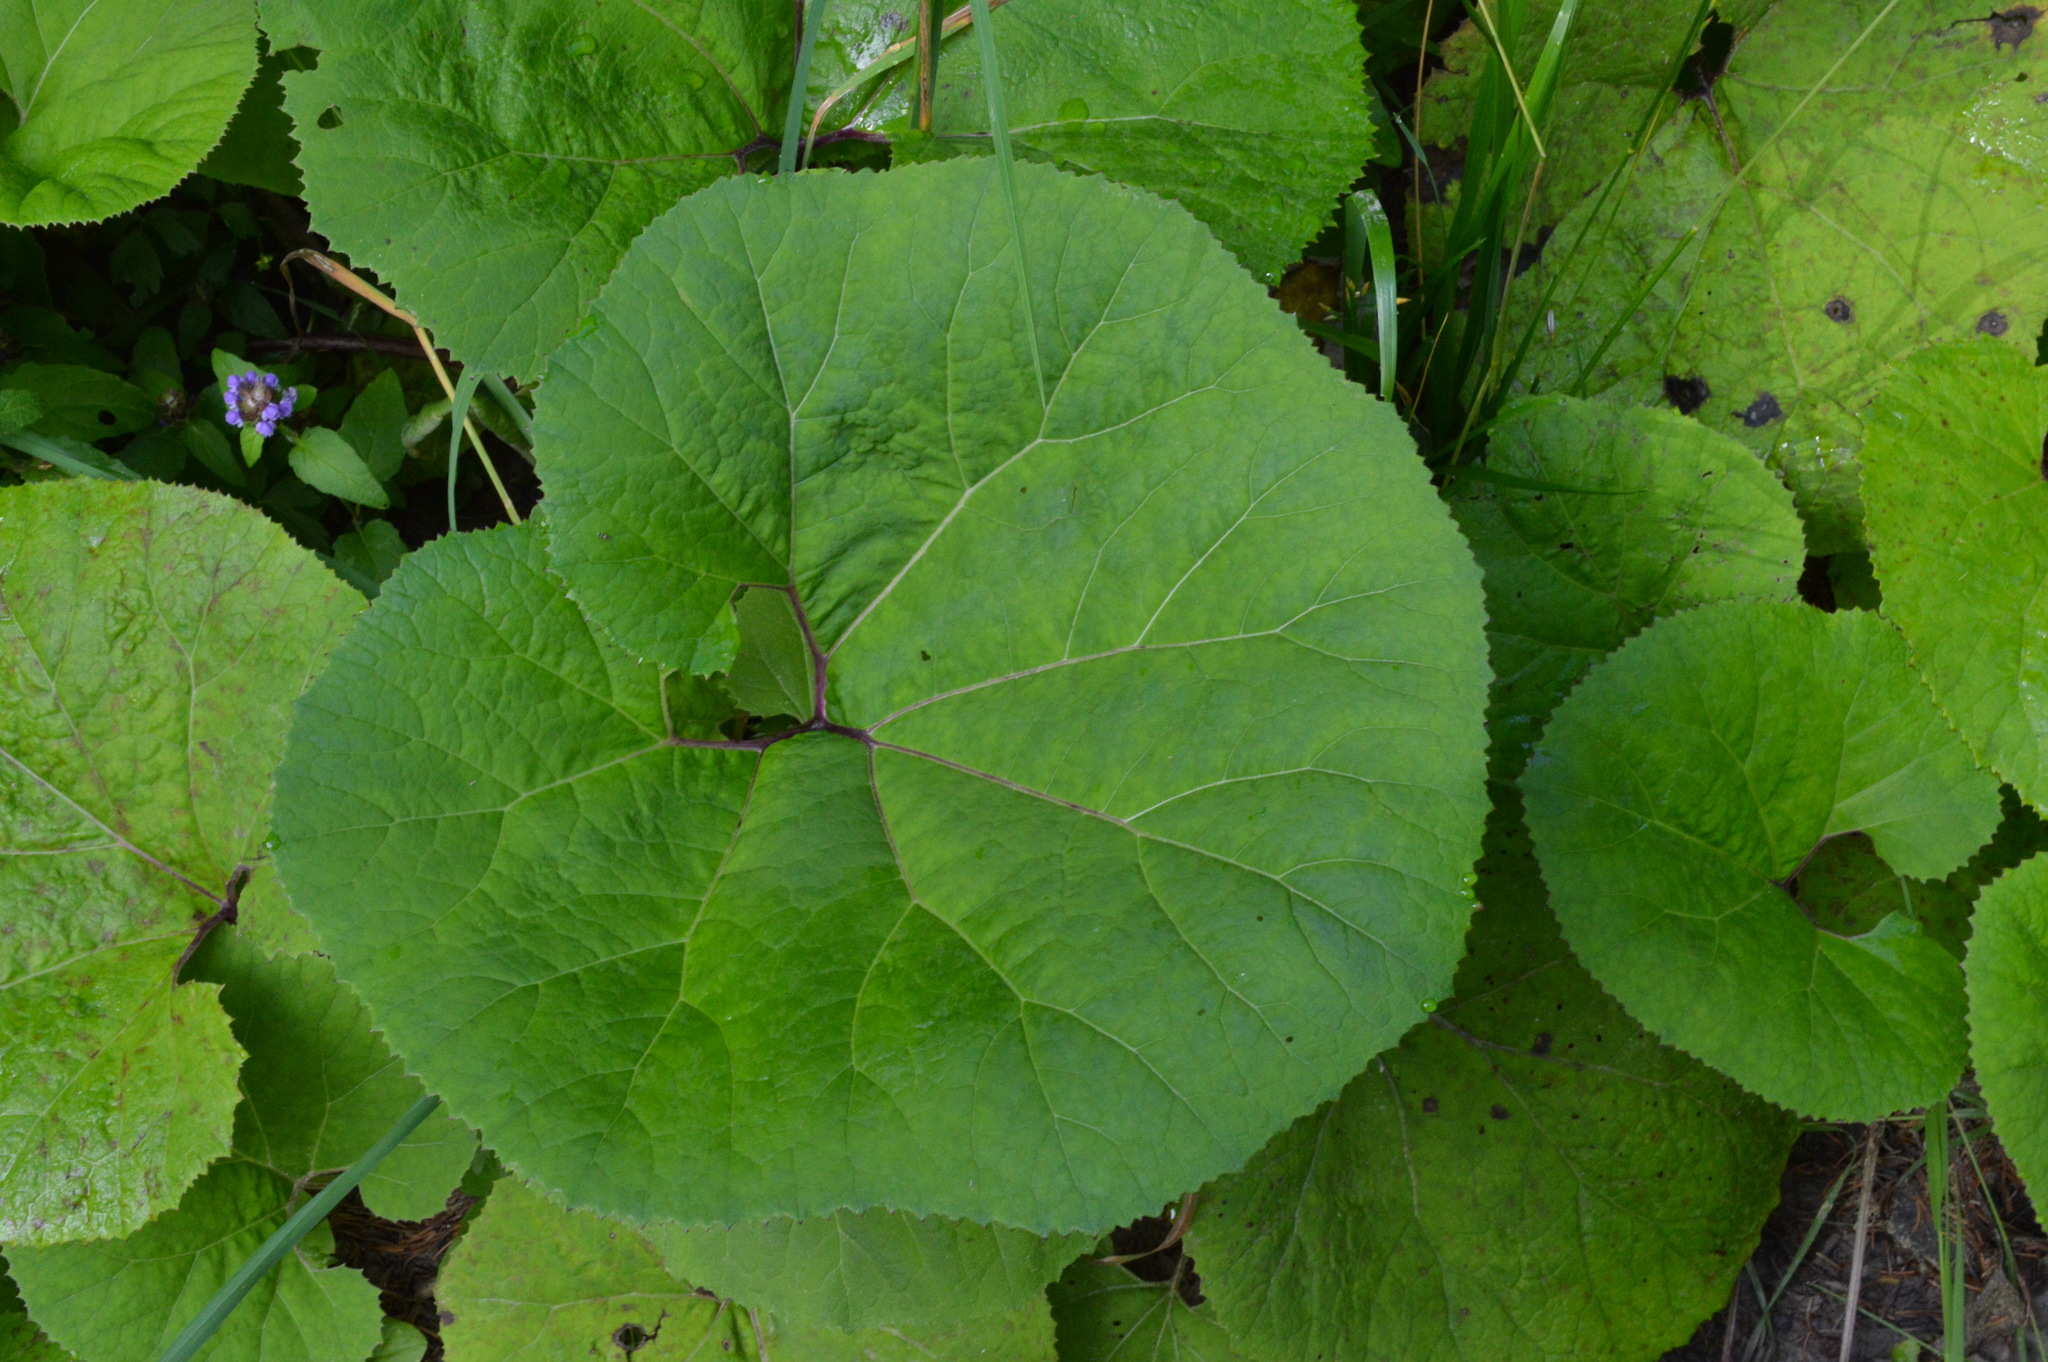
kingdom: Plantae
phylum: Tracheophyta
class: Magnoliopsida
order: Asterales
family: Asteraceae
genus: Petasites
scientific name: Petasites hybridus
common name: Butterbur
